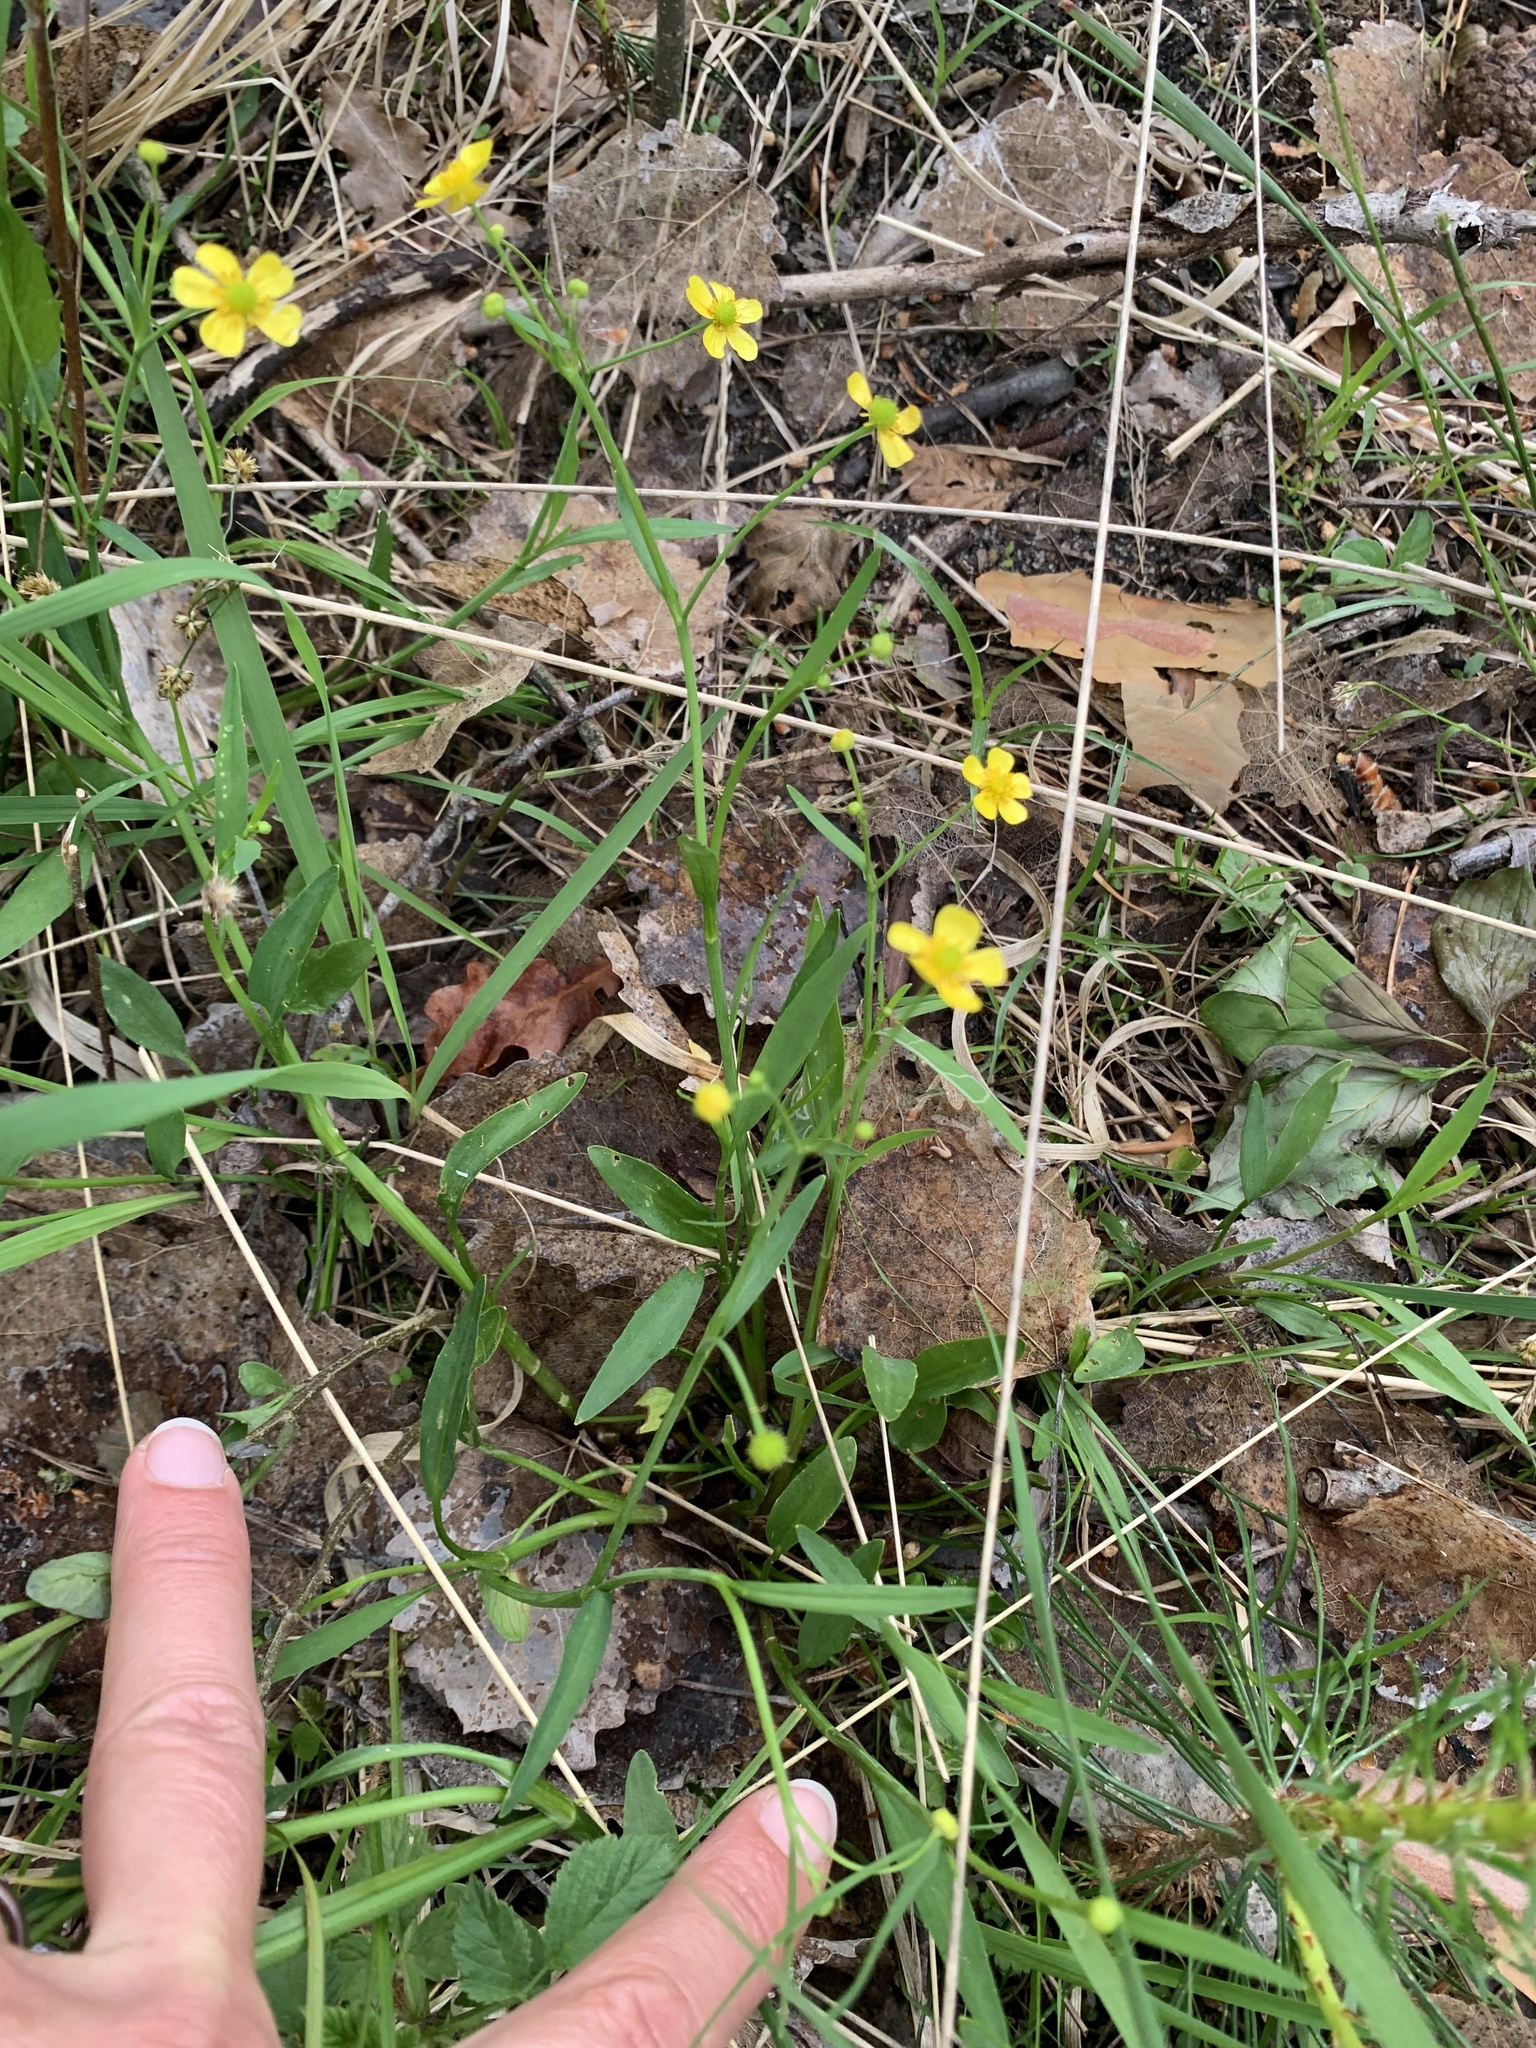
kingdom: Plantae
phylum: Tracheophyta
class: Magnoliopsida
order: Ranunculales
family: Ranunculaceae
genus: Ranunculus
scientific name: Ranunculus flammula
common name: Lesser spearwort
